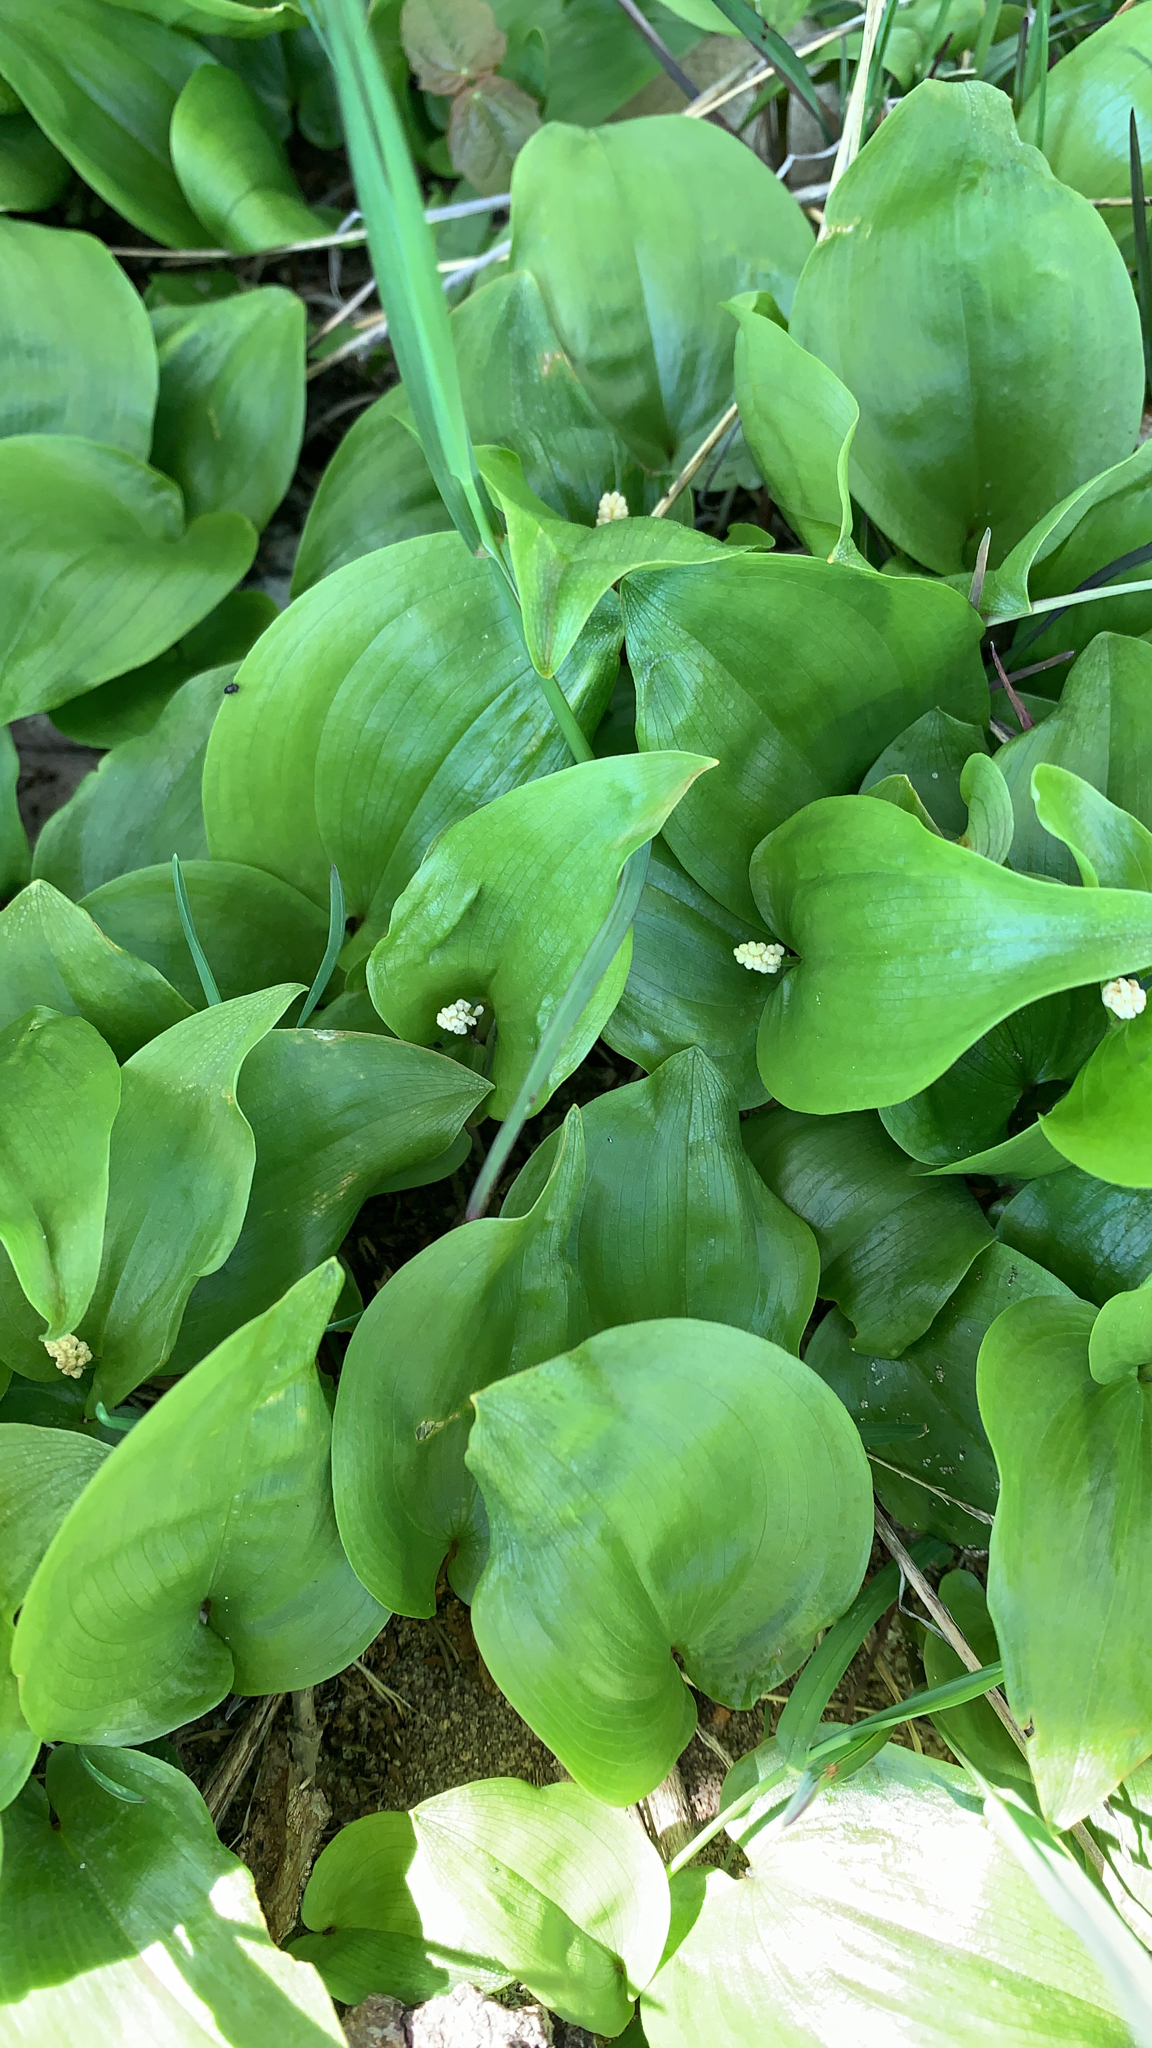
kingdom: Plantae
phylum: Tracheophyta
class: Liliopsida
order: Asparagales
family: Asparagaceae
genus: Maianthemum
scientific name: Maianthemum canadense
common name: False lily-of-the-valley
